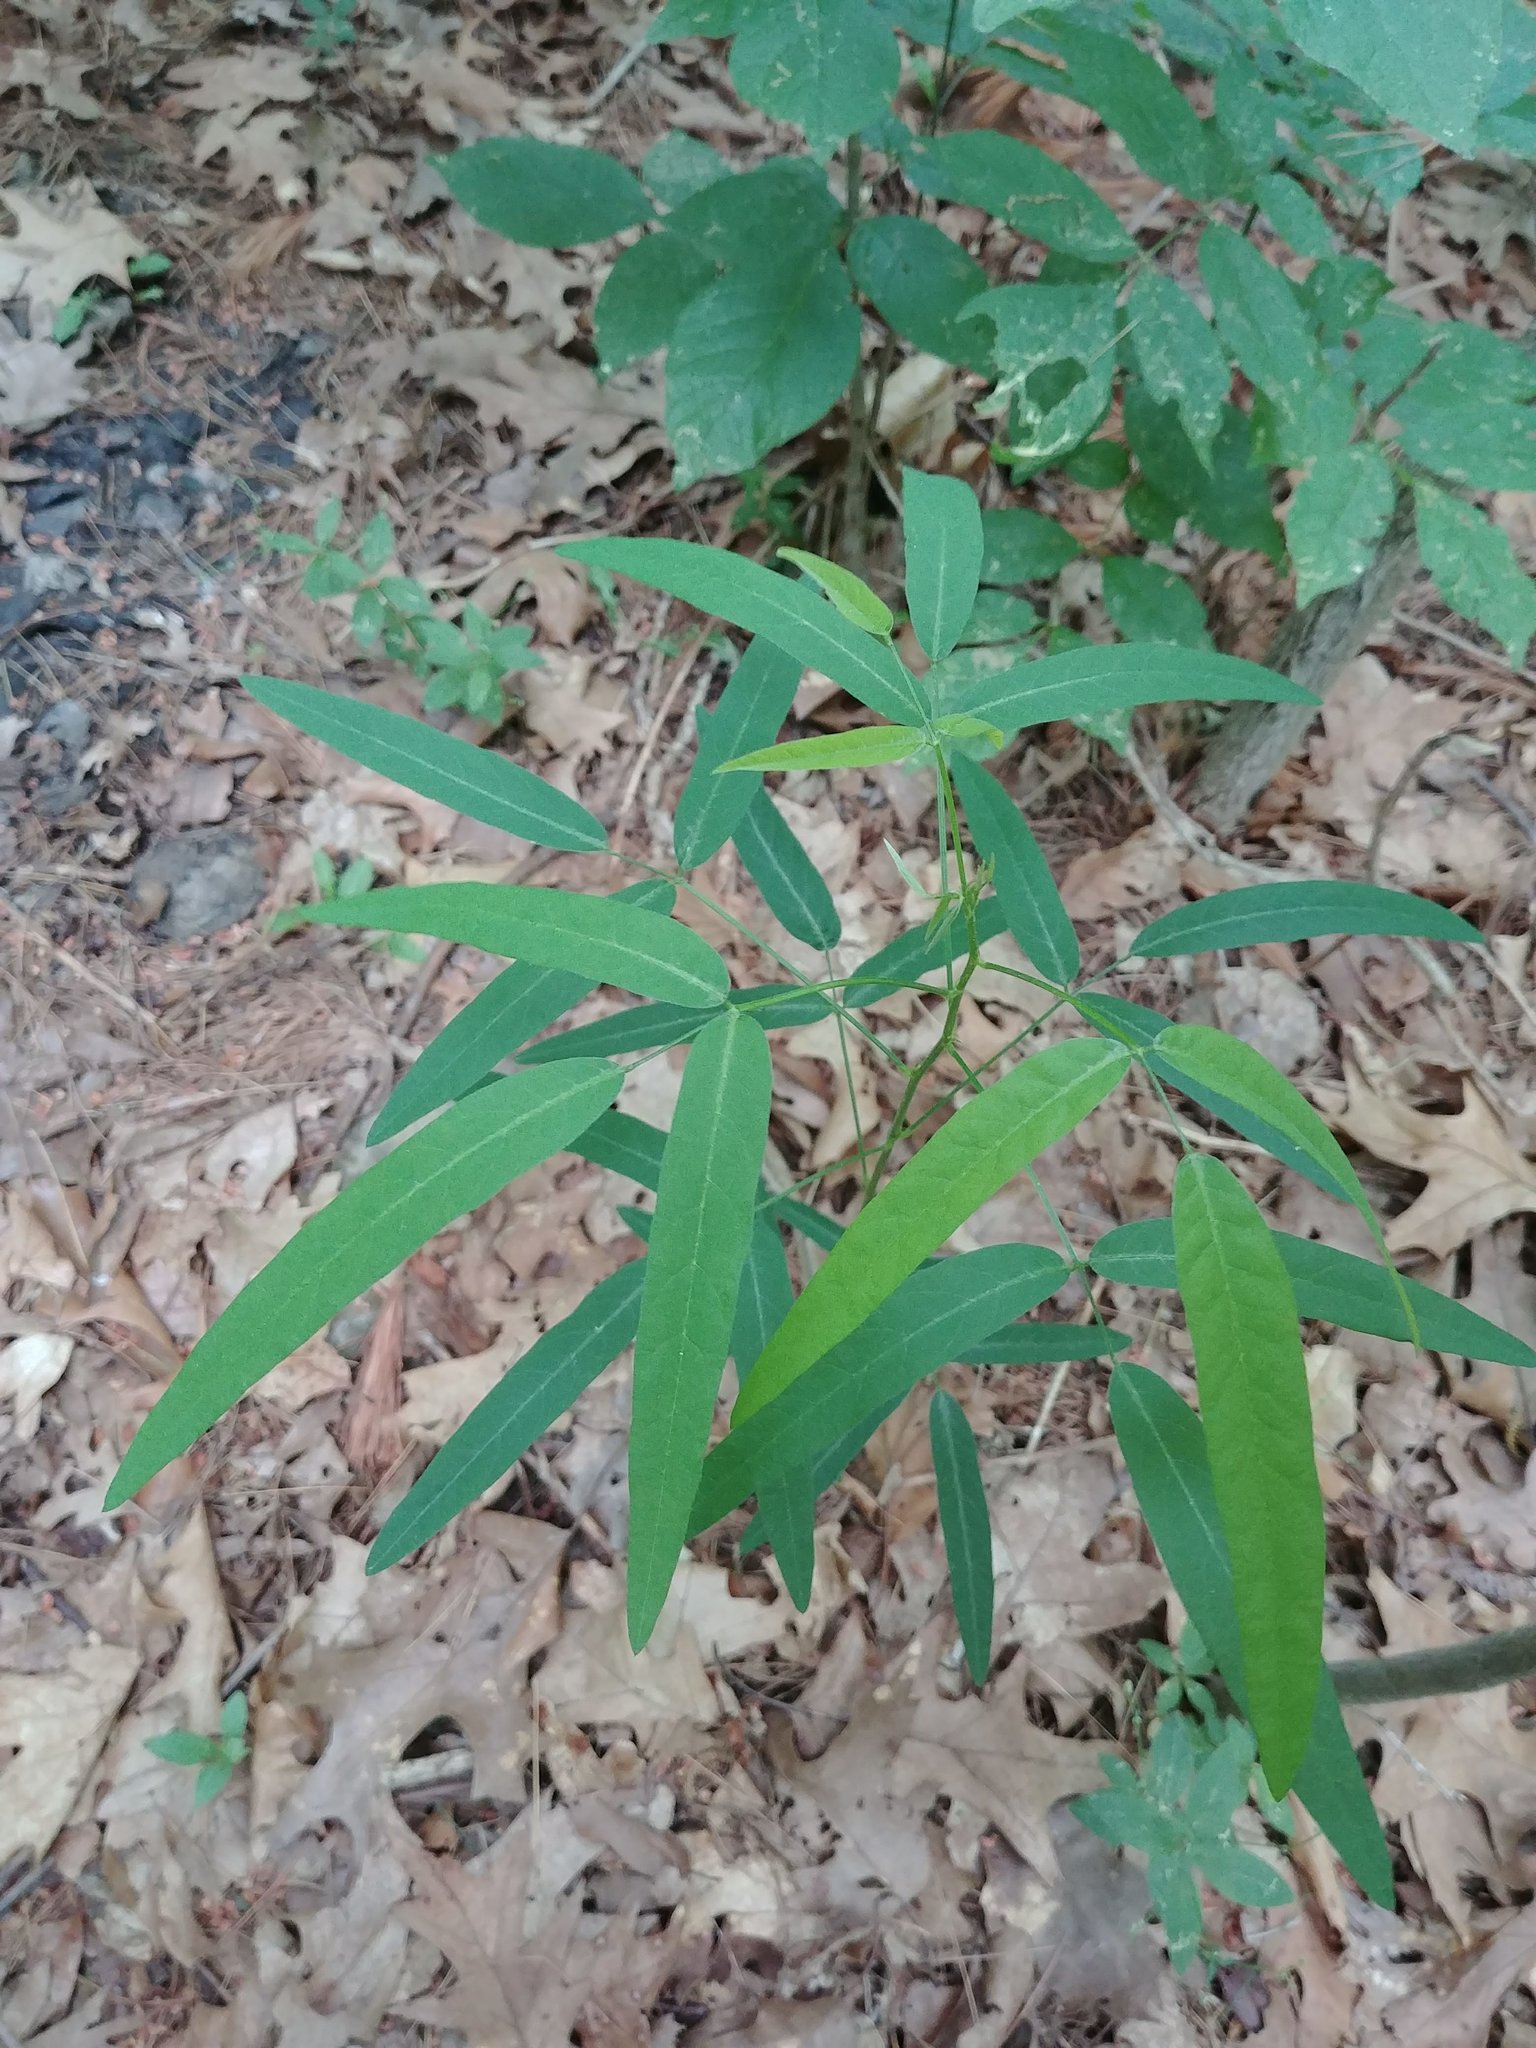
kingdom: Plantae
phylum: Tracheophyta
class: Magnoliopsida
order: Fabales
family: Fabaceae
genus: Desmodium
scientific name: Desmodium paniculatum
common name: Panicled tick-clover
